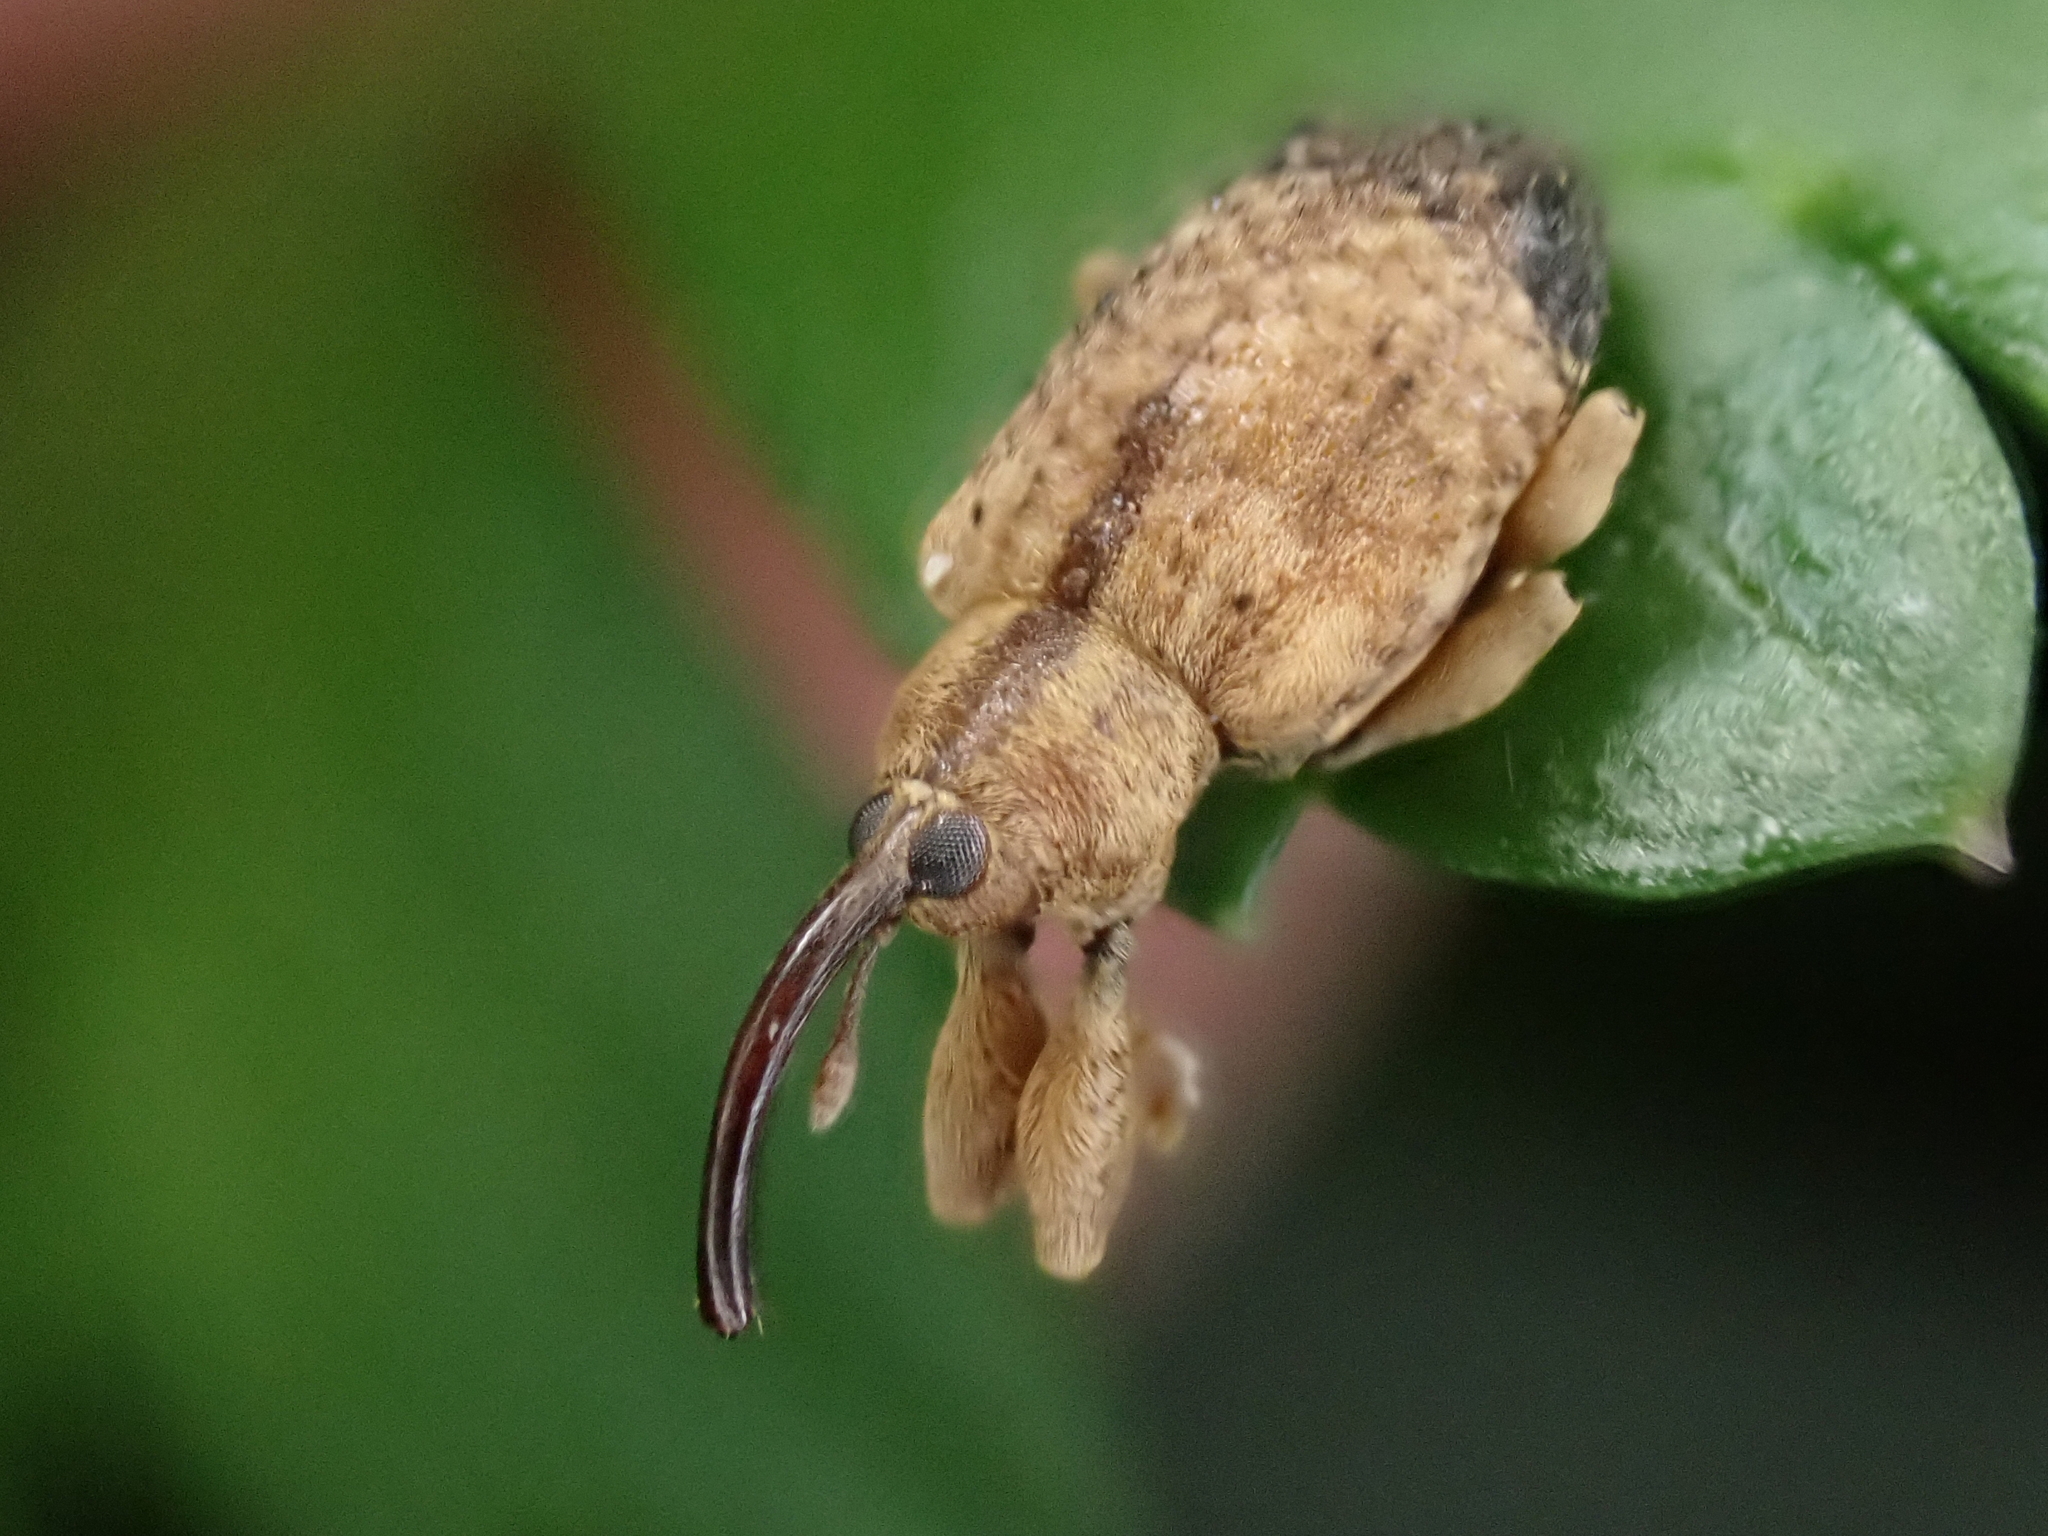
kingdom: Animalia
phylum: Arthropoda
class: Insecta
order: Coleoptera
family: Curculionidae
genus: Ochyromera
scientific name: Ochyromera ligustri
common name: Weevil
